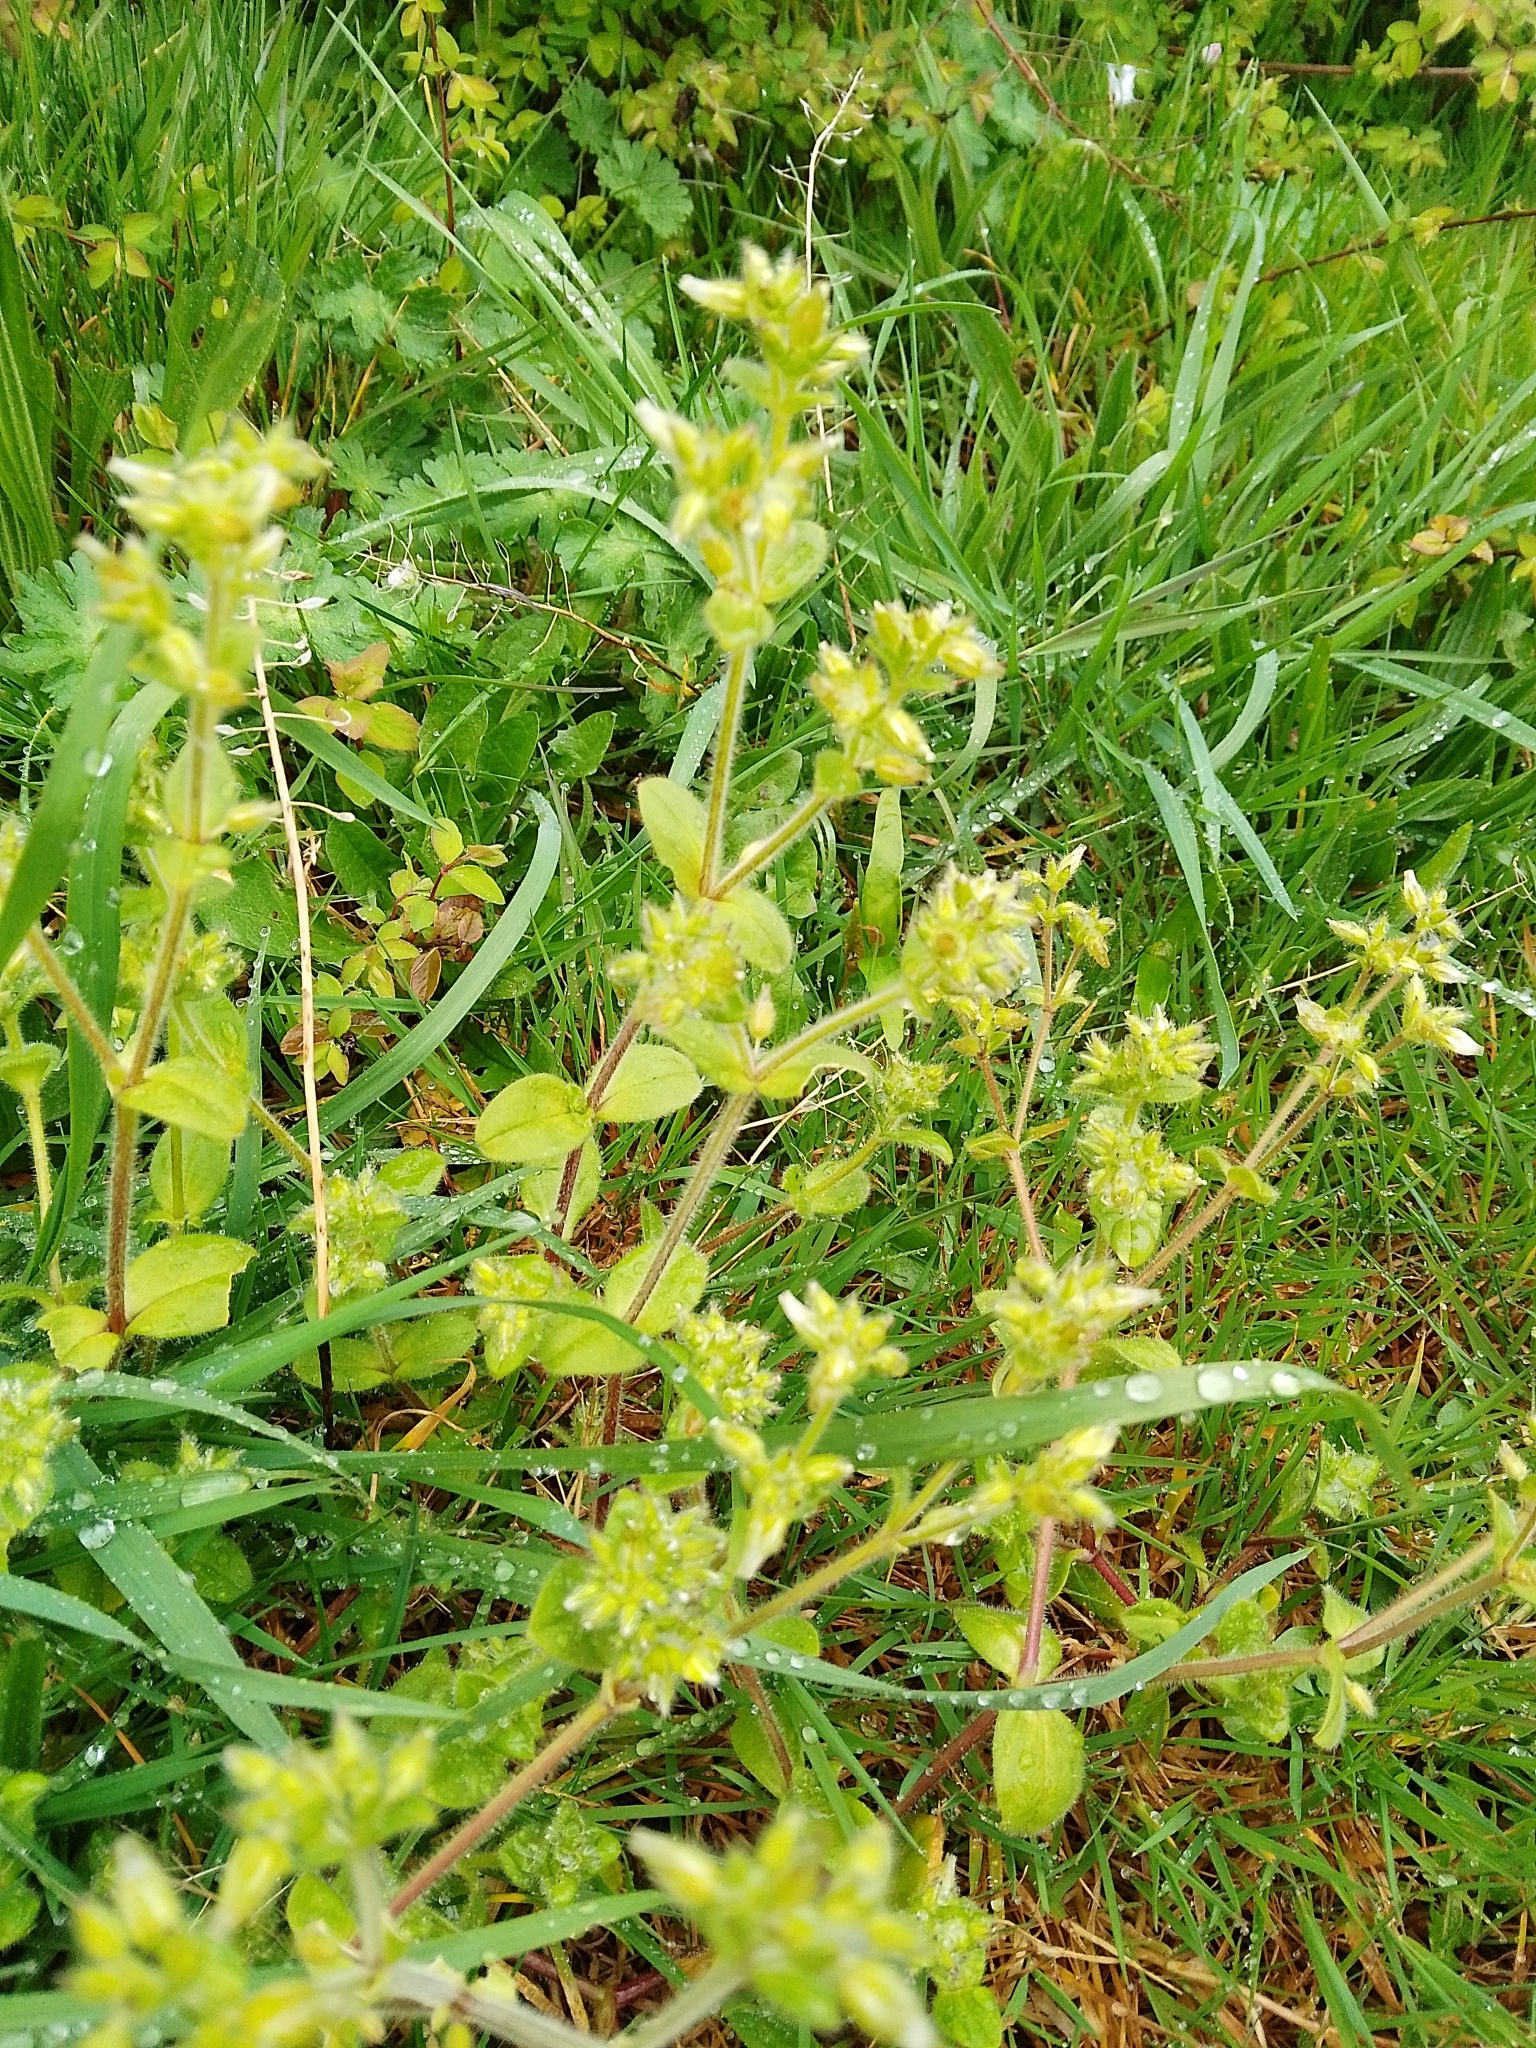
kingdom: Plantae
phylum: Tracheophyta
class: Magnoliopsida
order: Caryophyllales
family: Caryophyllaceae
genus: Cerastium
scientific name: Cerastium glomeratum
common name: Sticky chickweed
